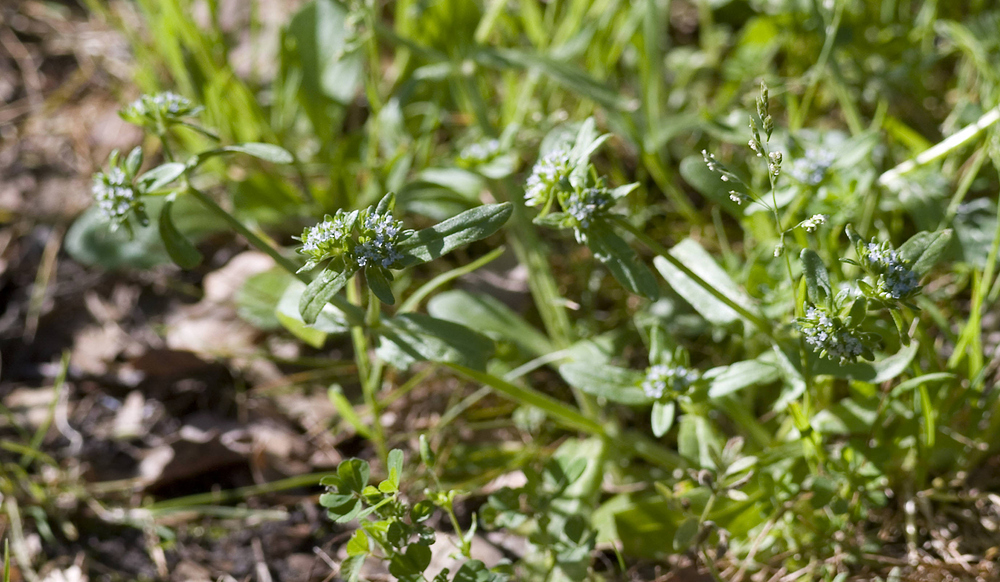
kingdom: Plantae
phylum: Tracheophyta
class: Magnoliopsida
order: Dipsacales
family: Caprifoliaceae
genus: Valerianella
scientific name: Valerianella locusta
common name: Common cornsalad
